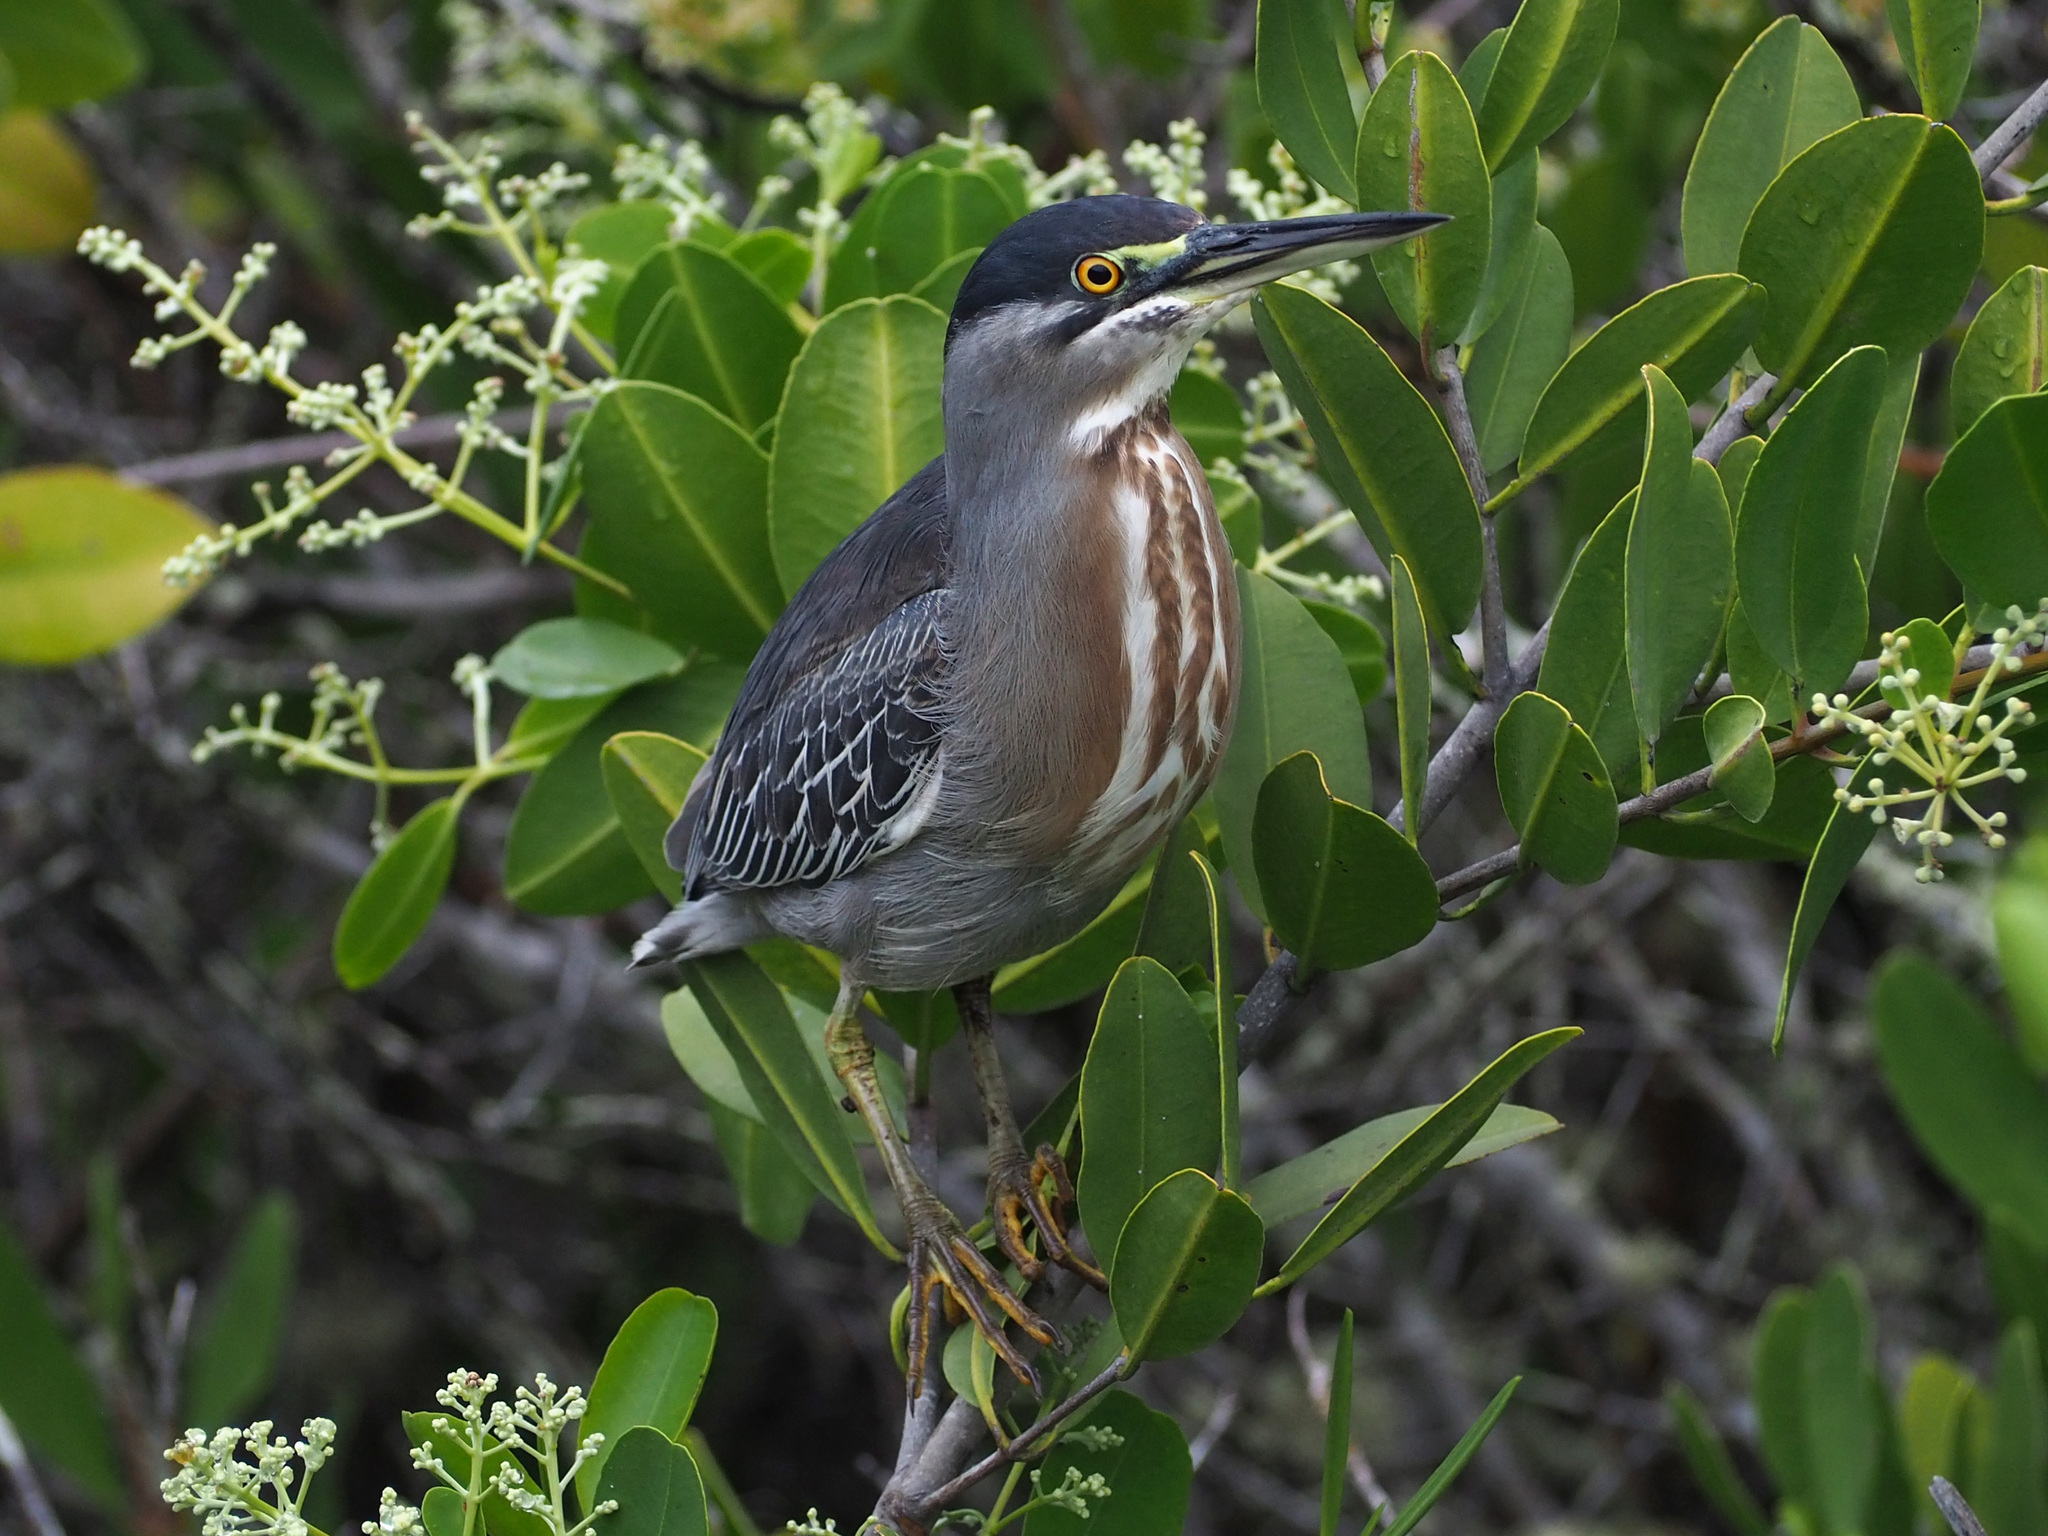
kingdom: Animalia
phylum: Chordata
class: Aves
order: Pelecaniformes
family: Ardeidae
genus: Butorides
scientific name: Butorides striata
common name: Striated heron
